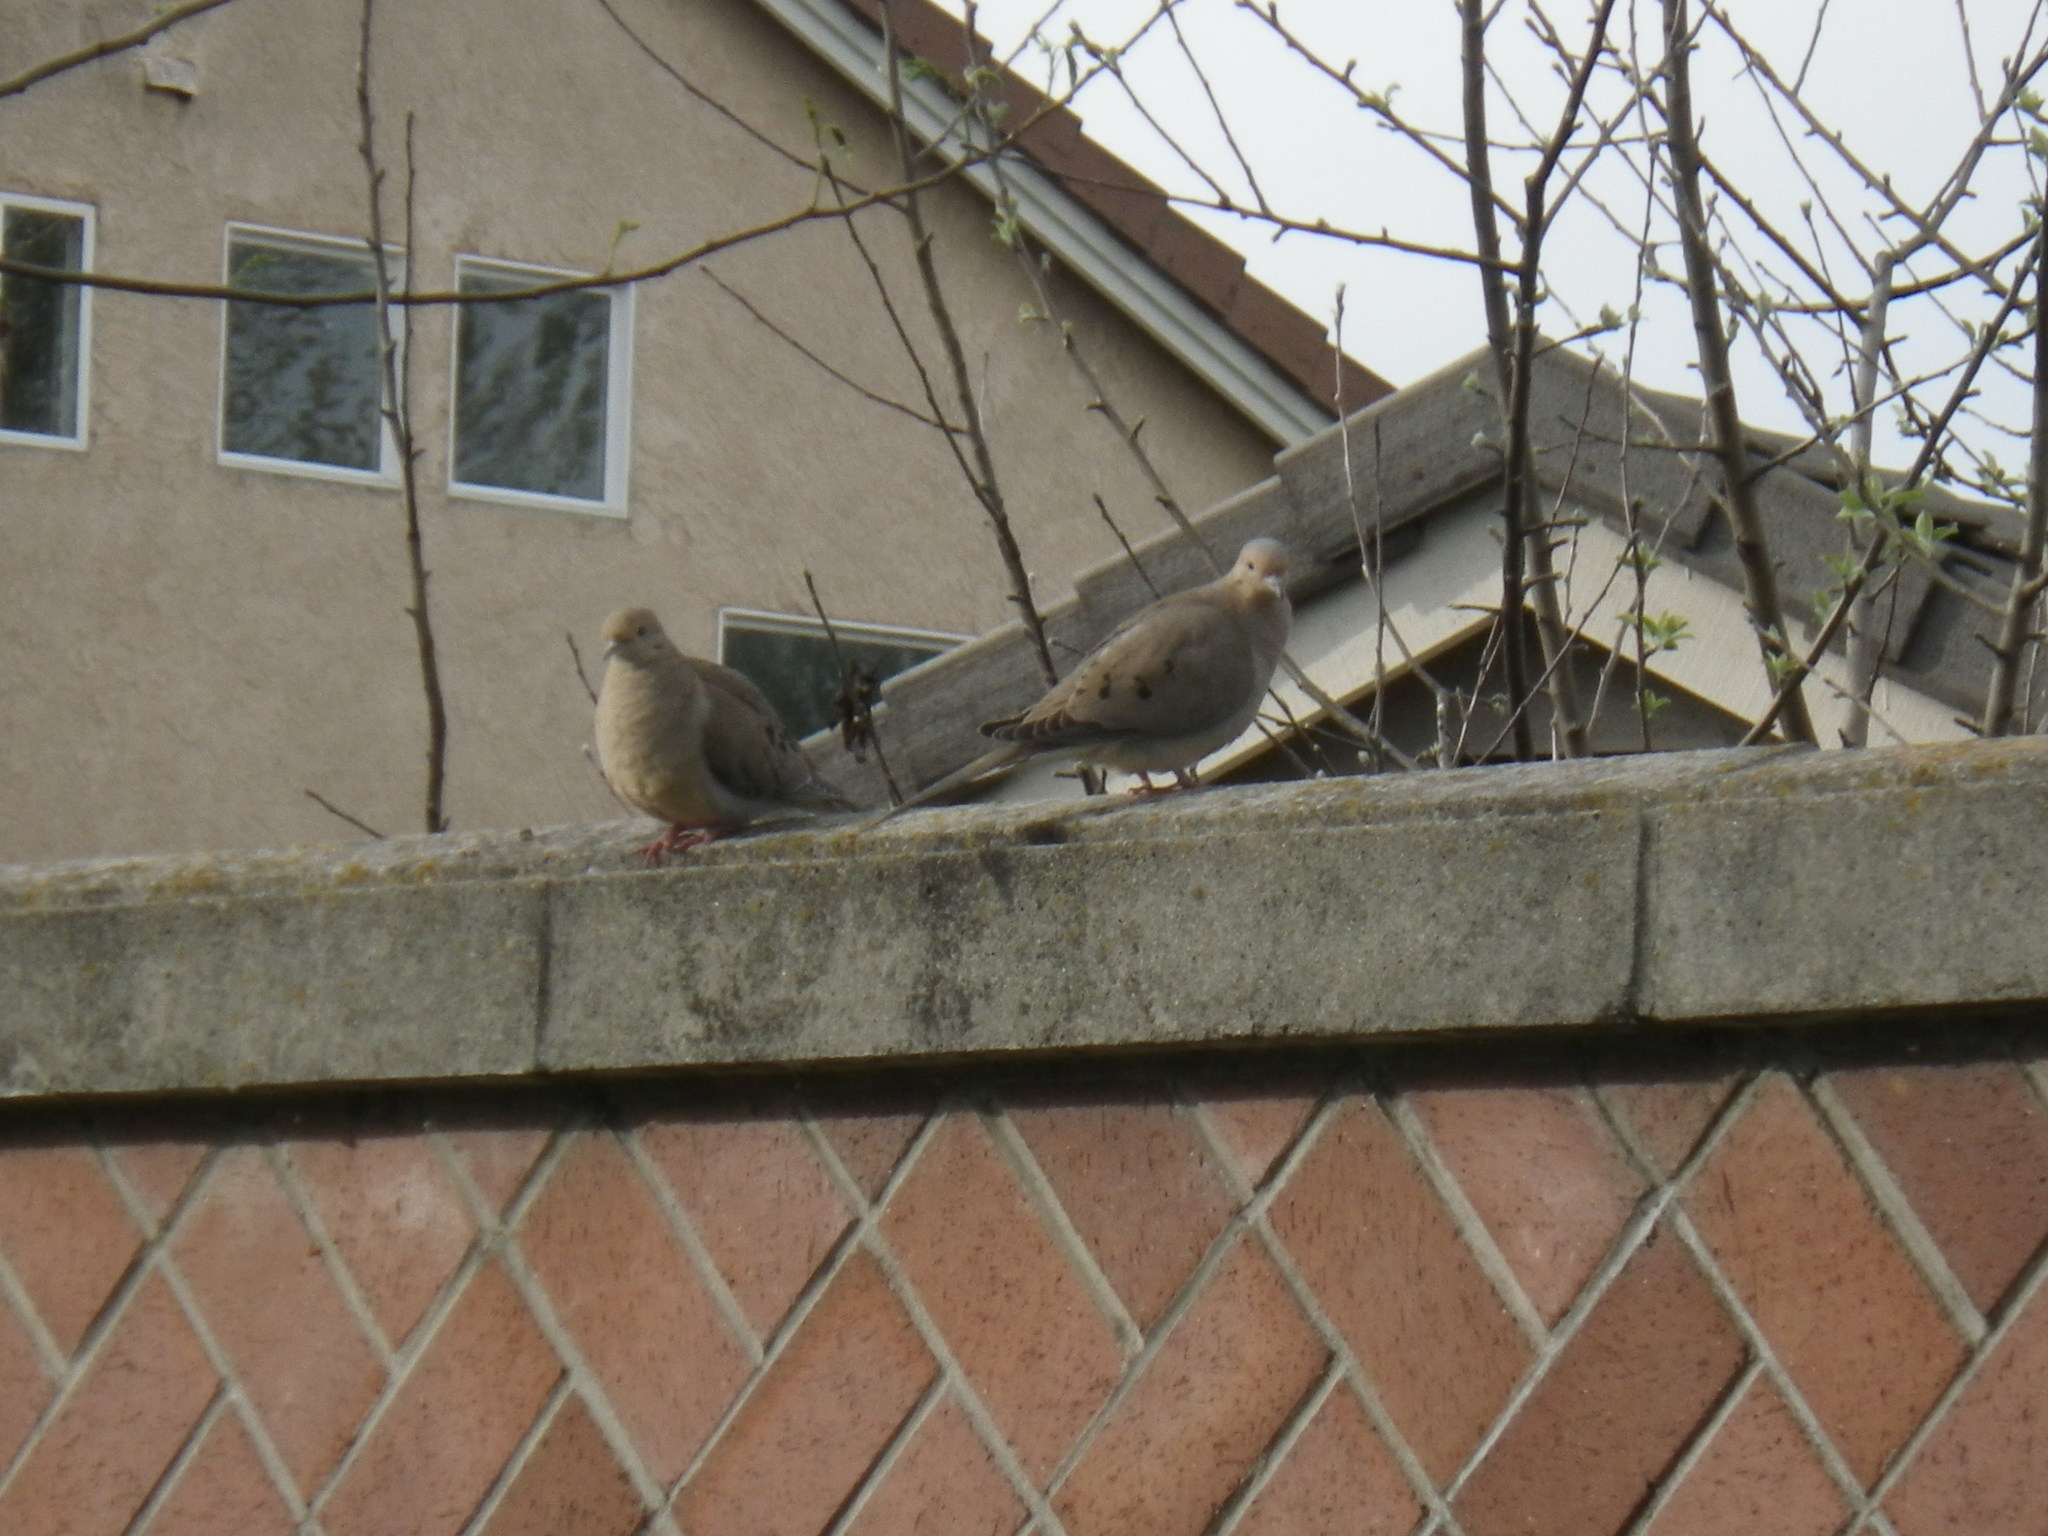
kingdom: Animalia
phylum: Chordata
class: Aves
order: Columbiformes
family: Columbidae
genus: Zenaida
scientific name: Zenaida macroura
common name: Mourning dove
